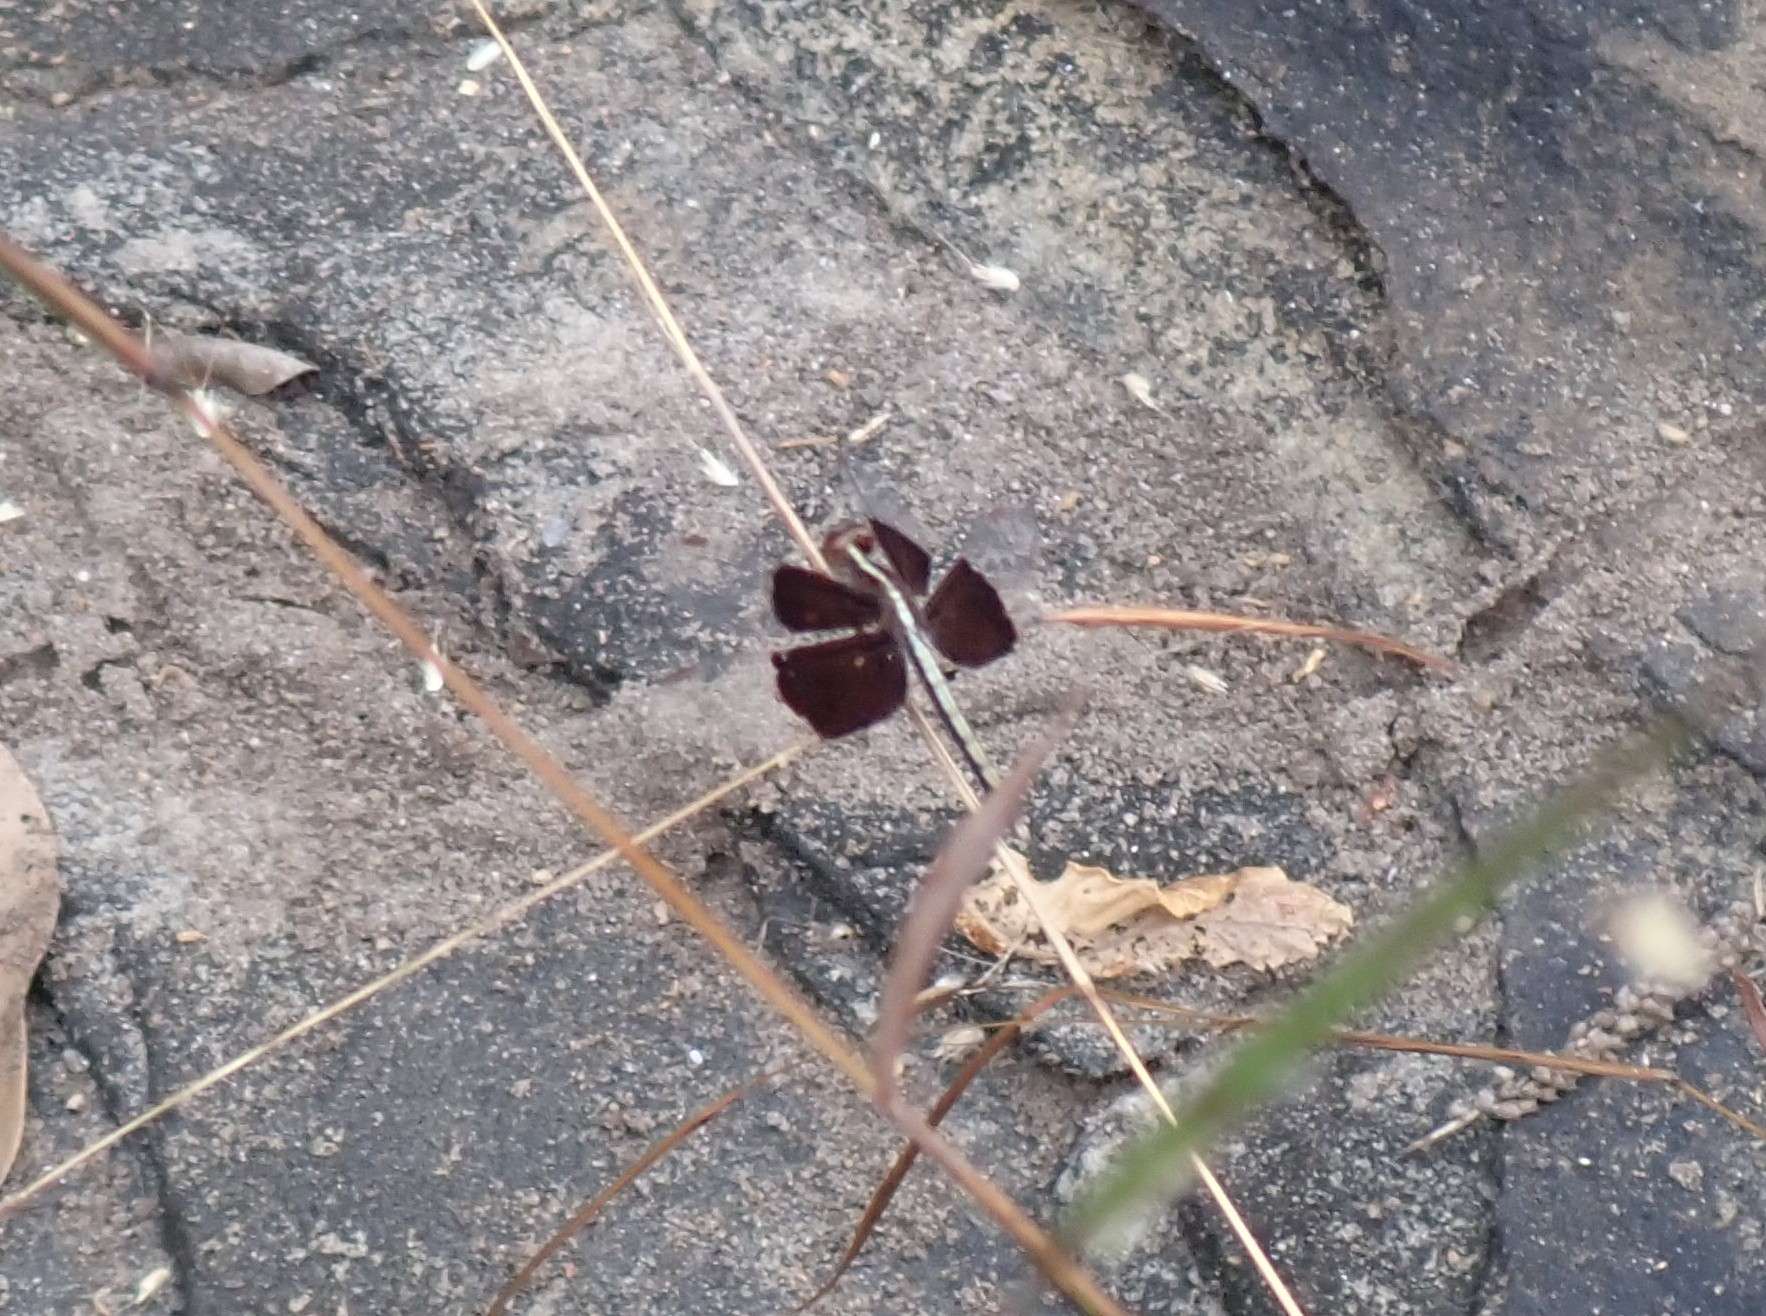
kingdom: Animalia
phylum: Arthropoda
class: Insecta
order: Odonata
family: Libellulidae
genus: Neurothemis
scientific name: Neurothemis tullia
